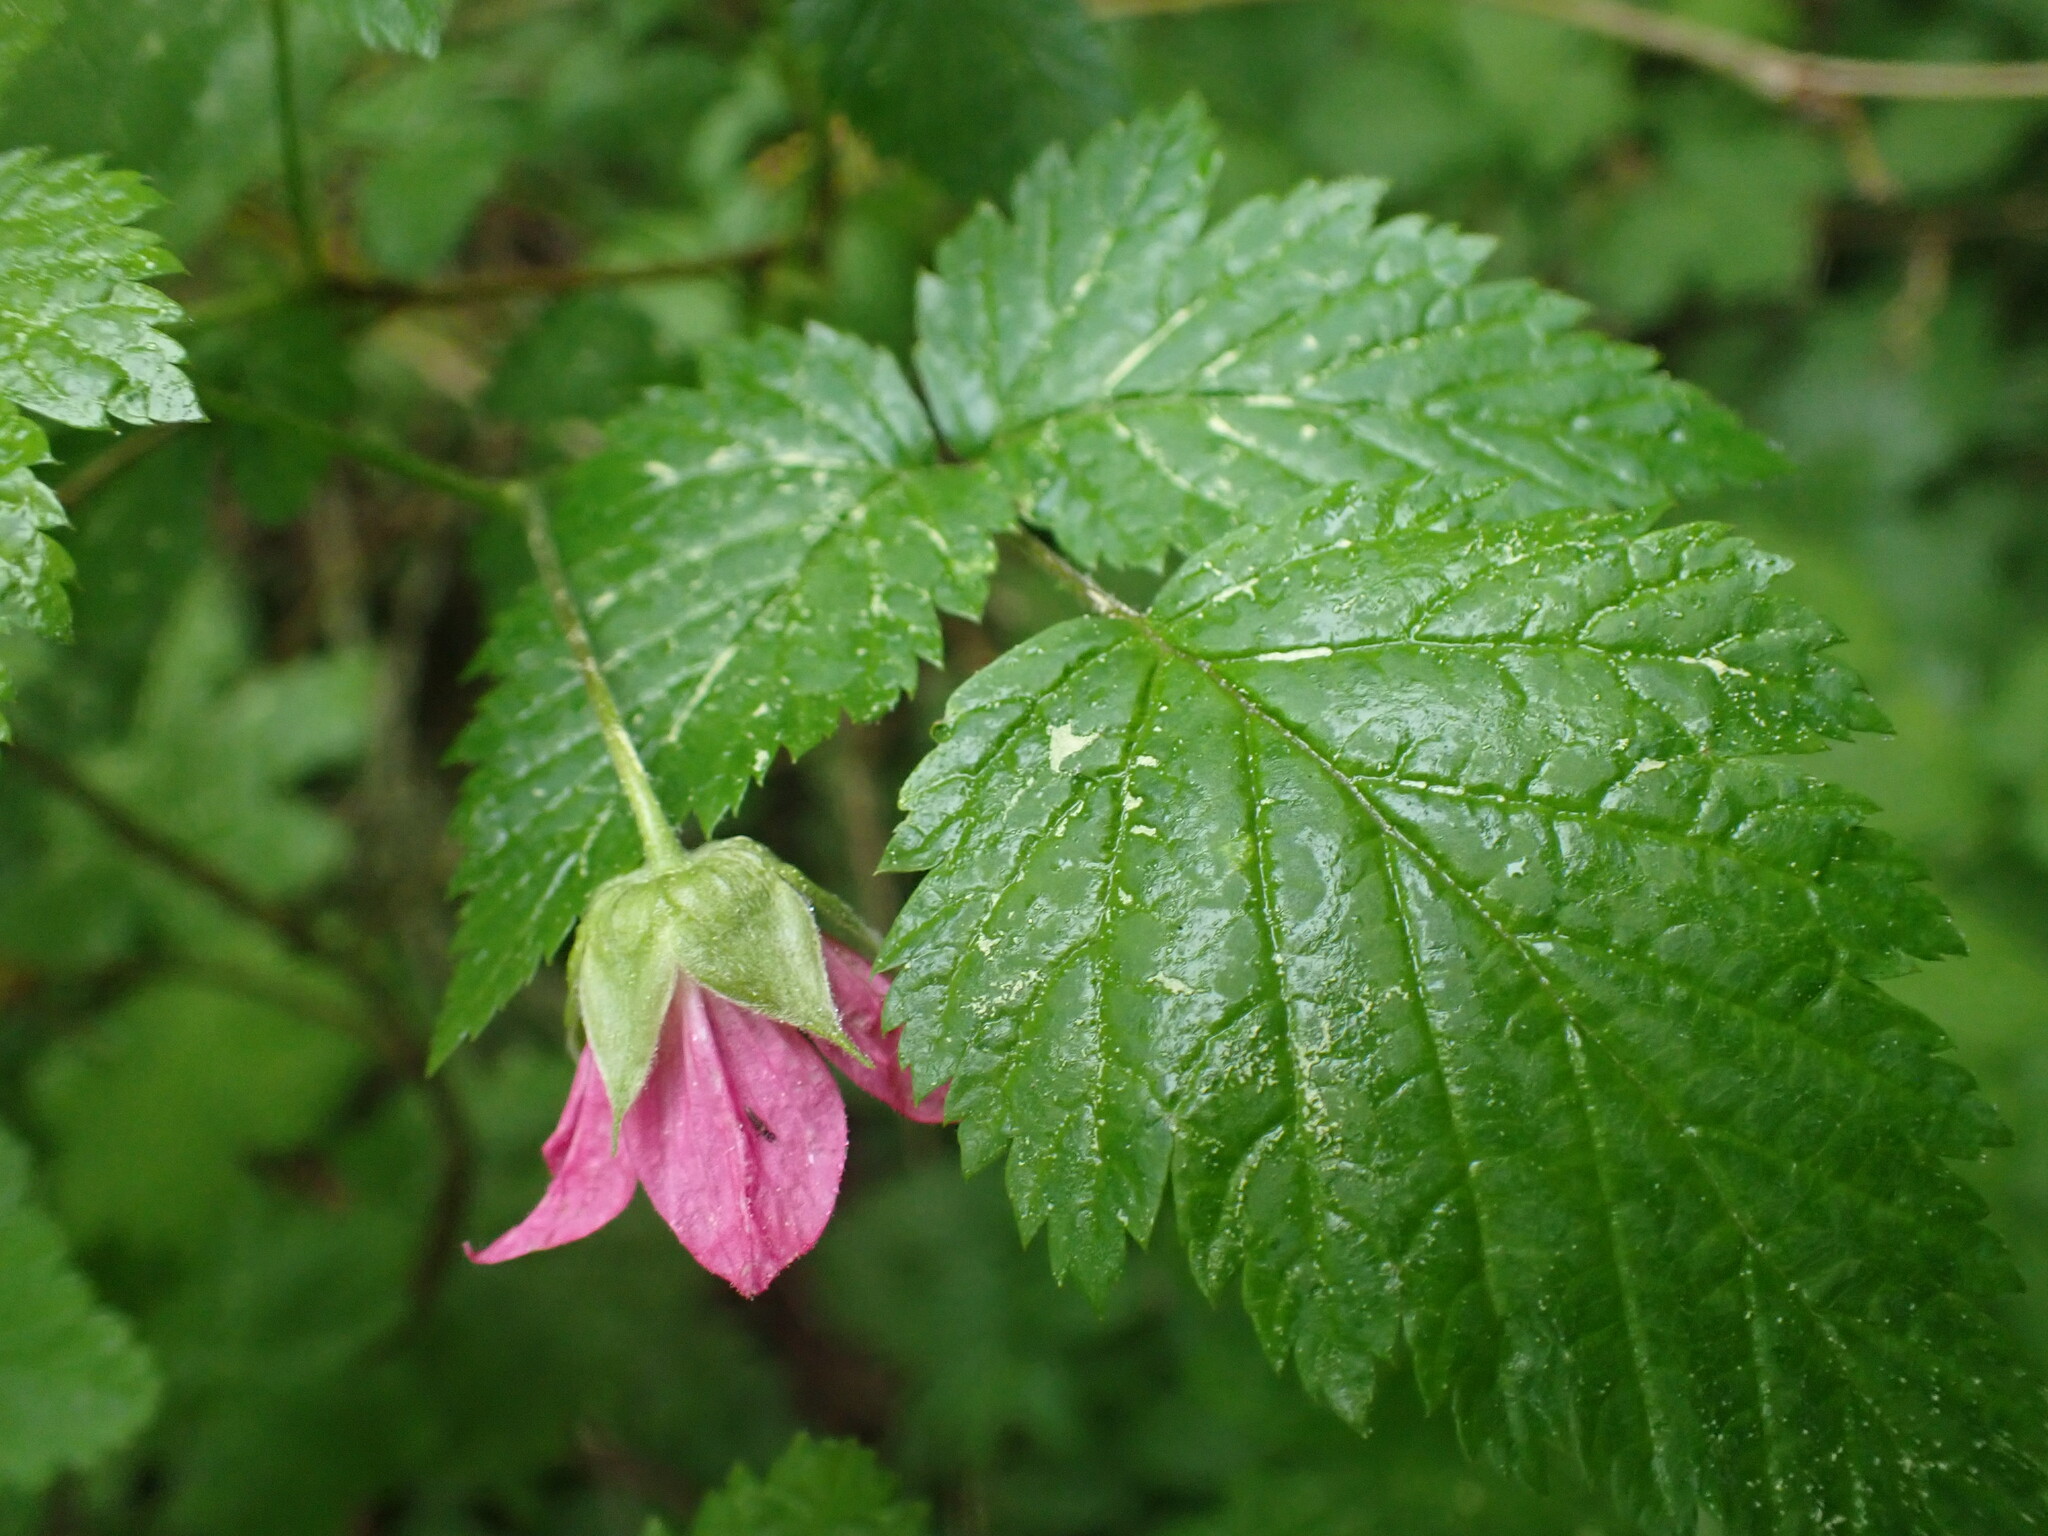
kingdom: Plantae
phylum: Tracheophyta
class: Magnoliopsida
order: Rosales
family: Rosaceae
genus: Rubus
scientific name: Rubus spectabilis
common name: Salmonberry
